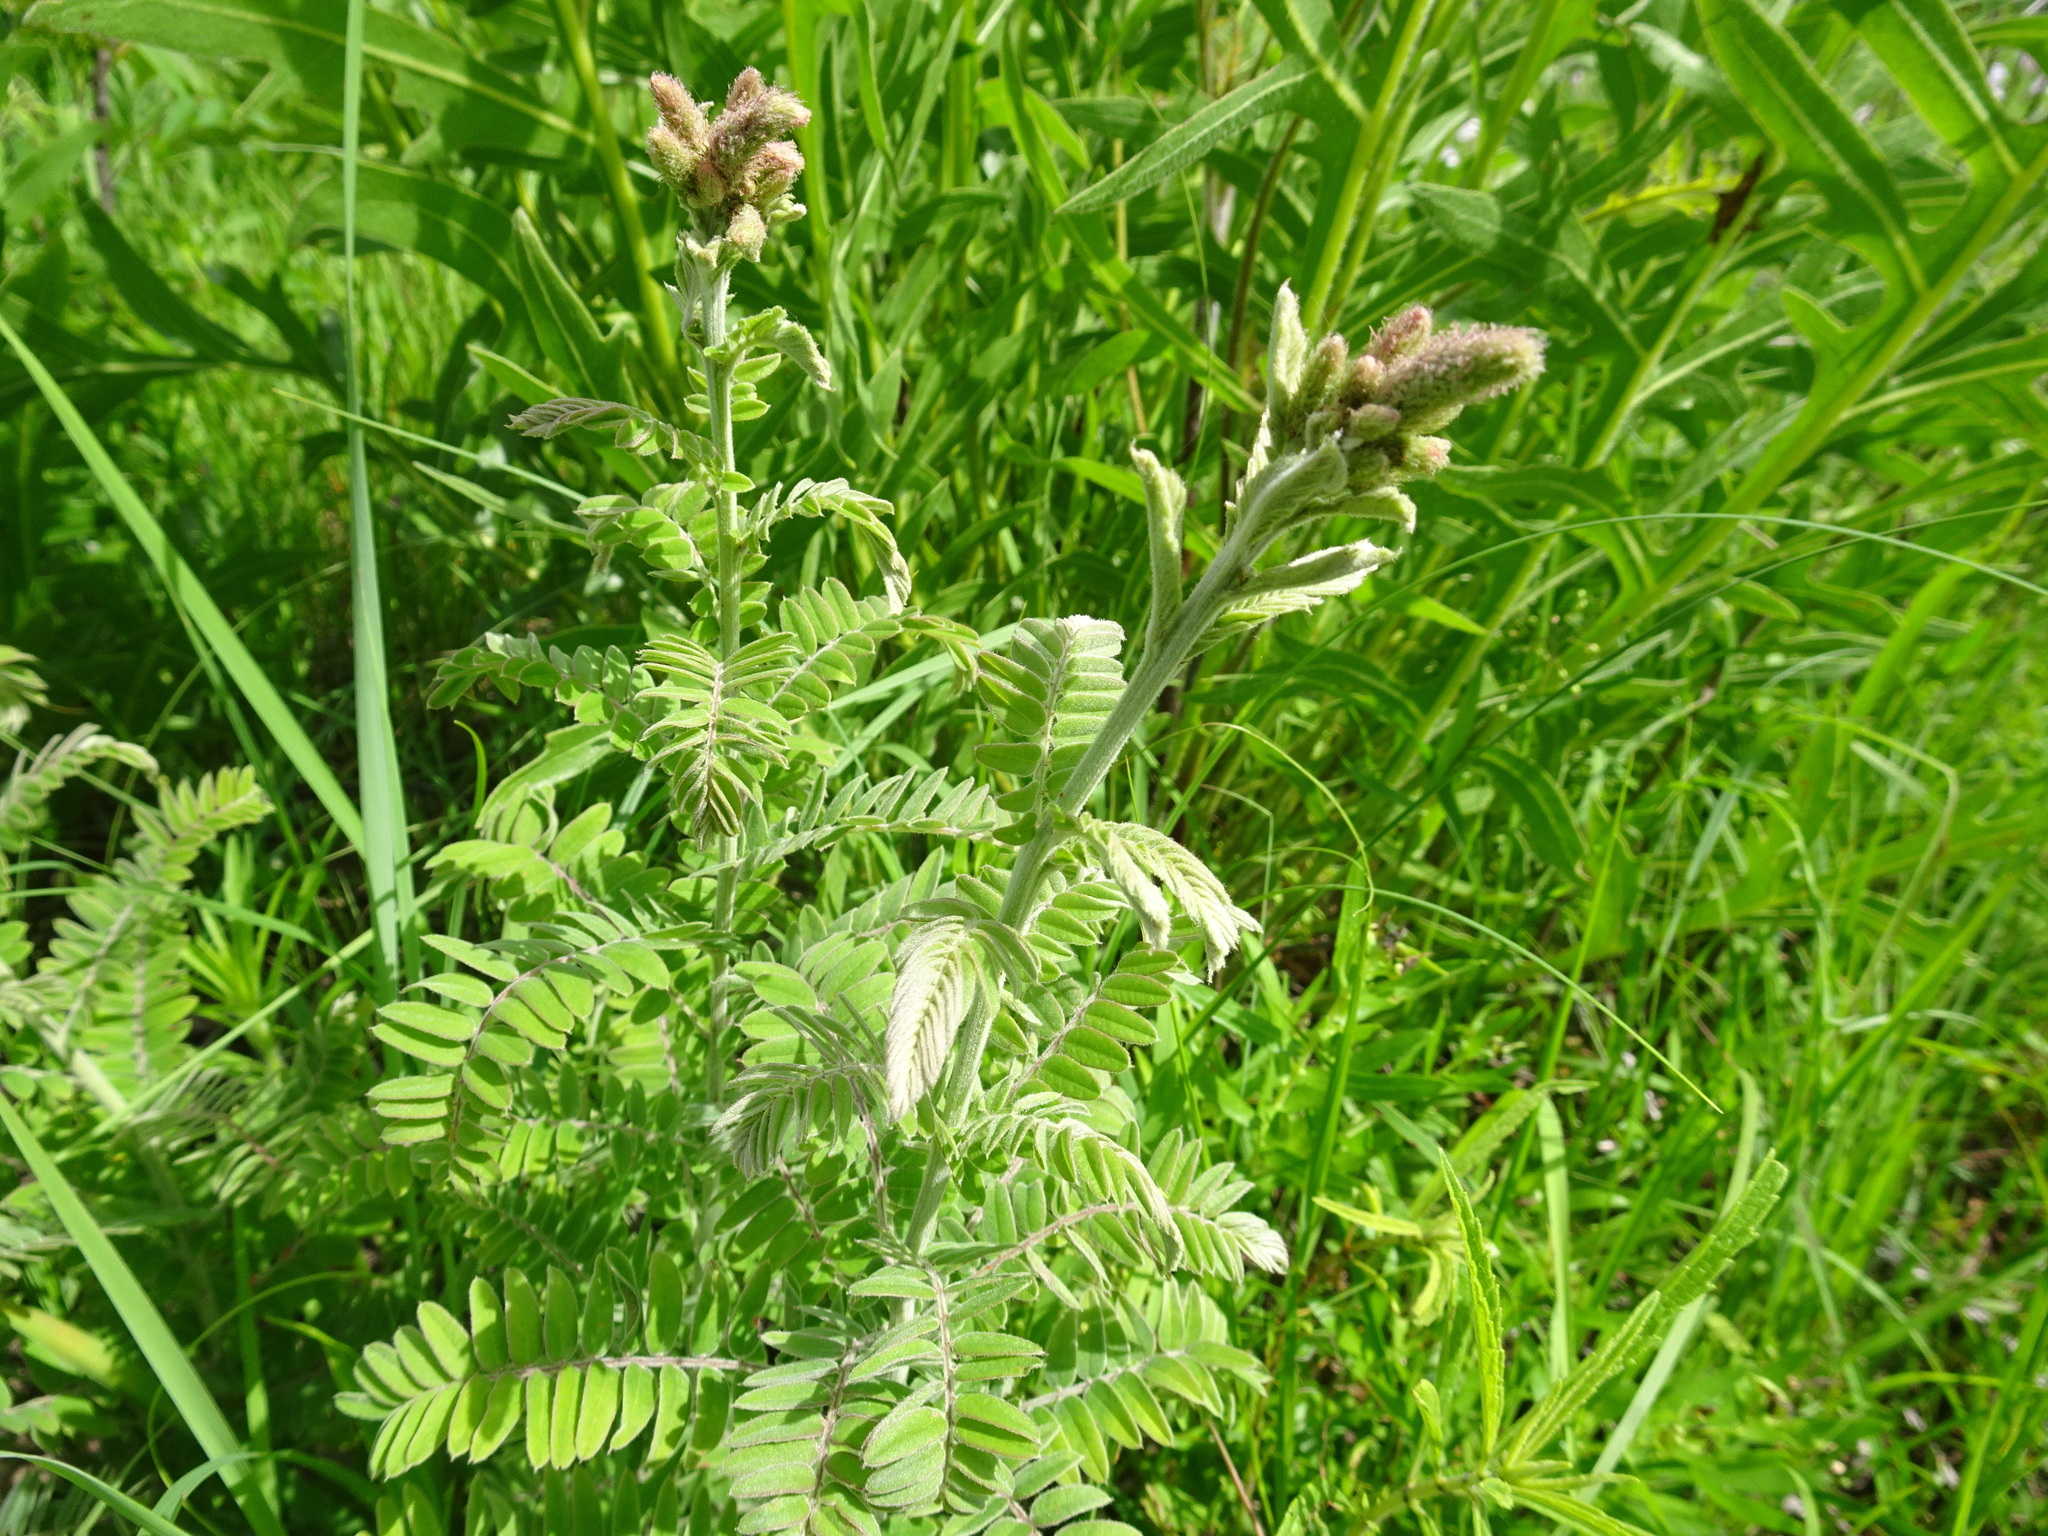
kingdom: Plantae
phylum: Tracheophyta
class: Magnoliopsida
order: Fabales
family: Fabaceae
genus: Amorpha
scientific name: Amorpha canescens
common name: Leadplant
